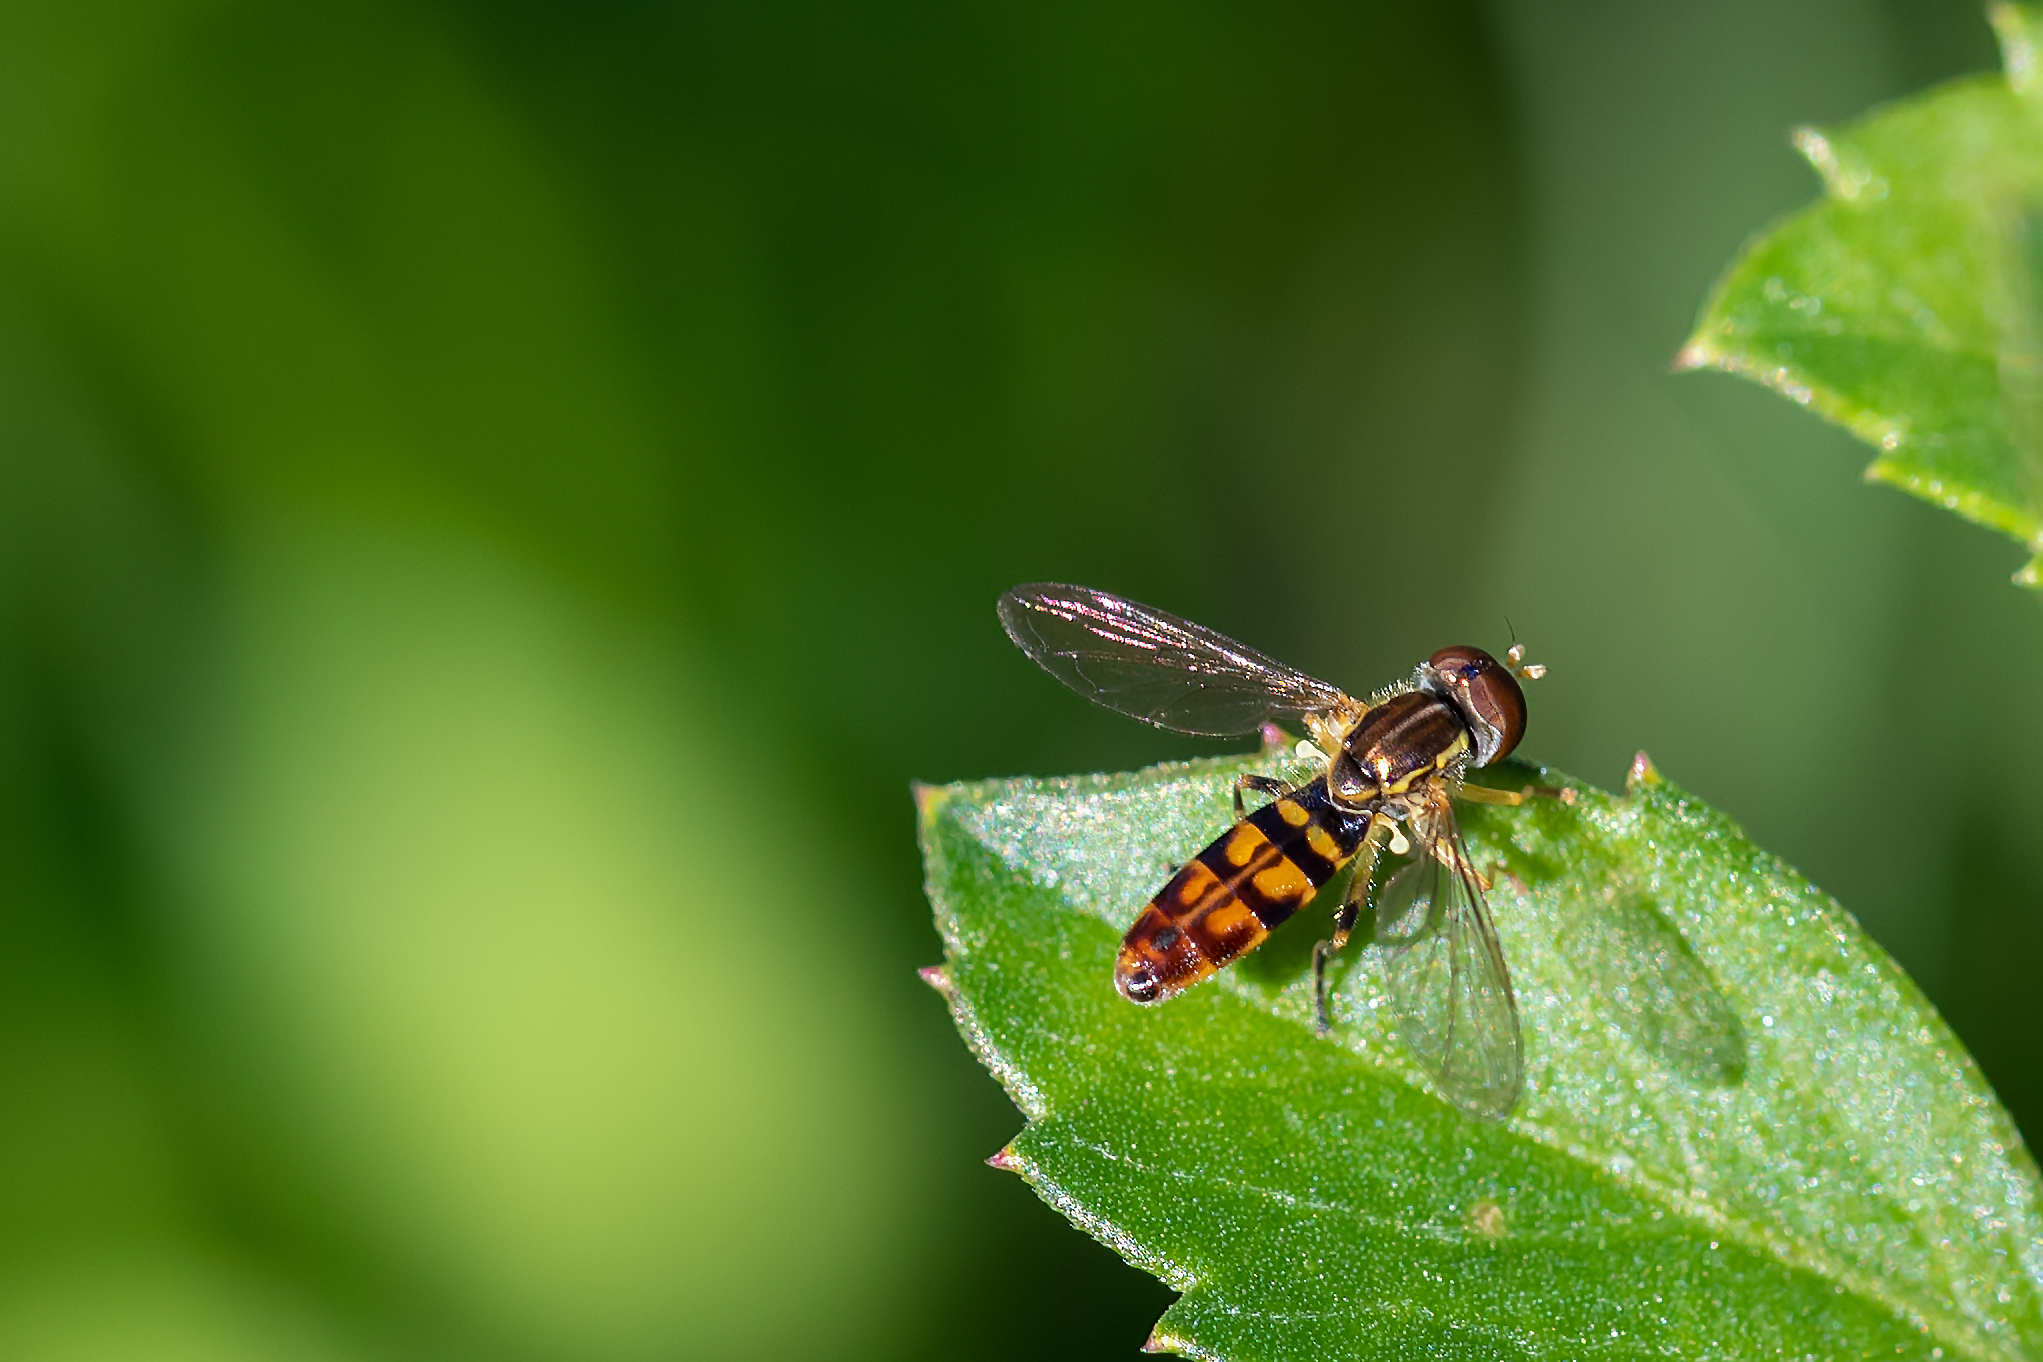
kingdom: Animalia
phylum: Arthropoda
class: Insecta
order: Diptera
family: Syrphidae
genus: Toxomerus
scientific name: Toxomerus floralis
